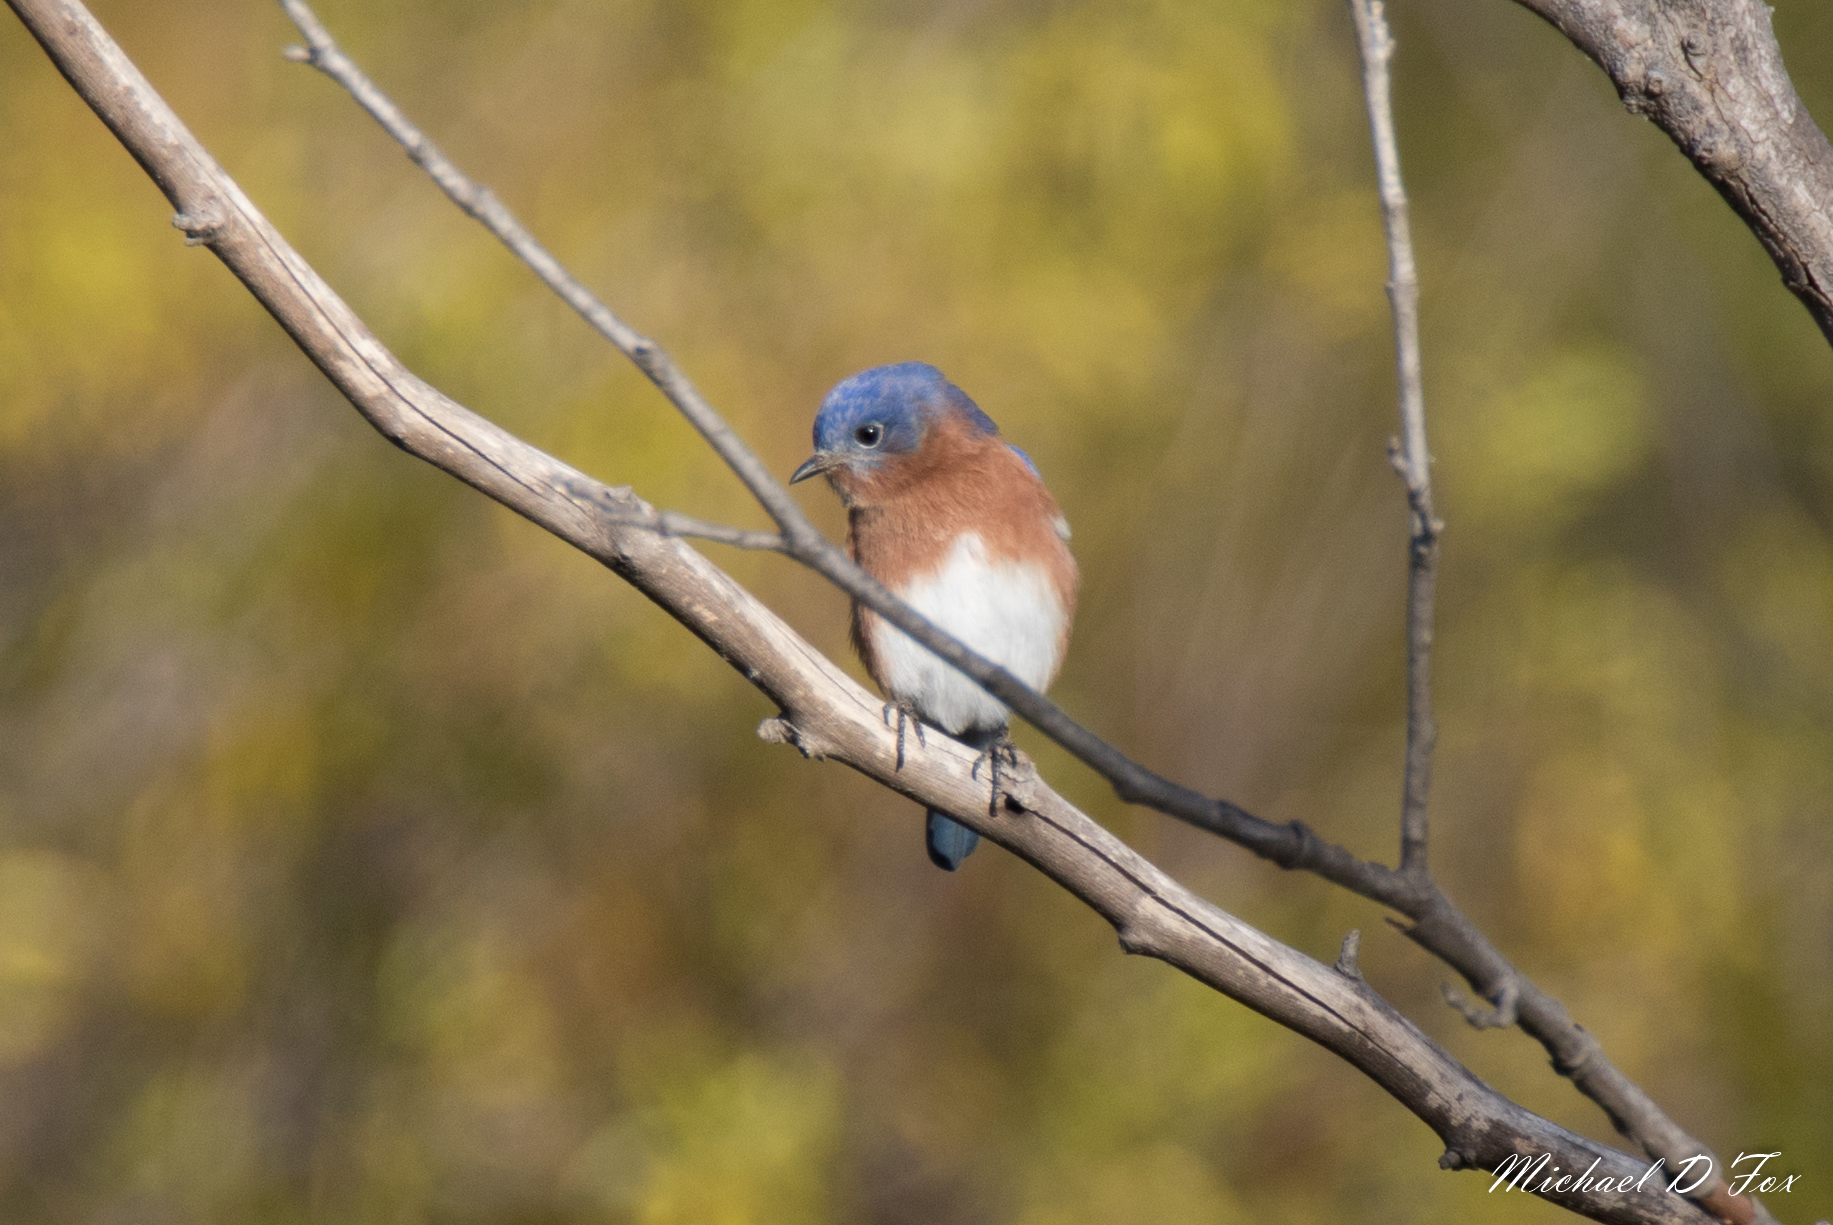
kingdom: Animalia
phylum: Chordata
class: Aves
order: Passeriformes
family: Turdidae
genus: Sialia
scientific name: Sialia sialis
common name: Eastern bluebird
